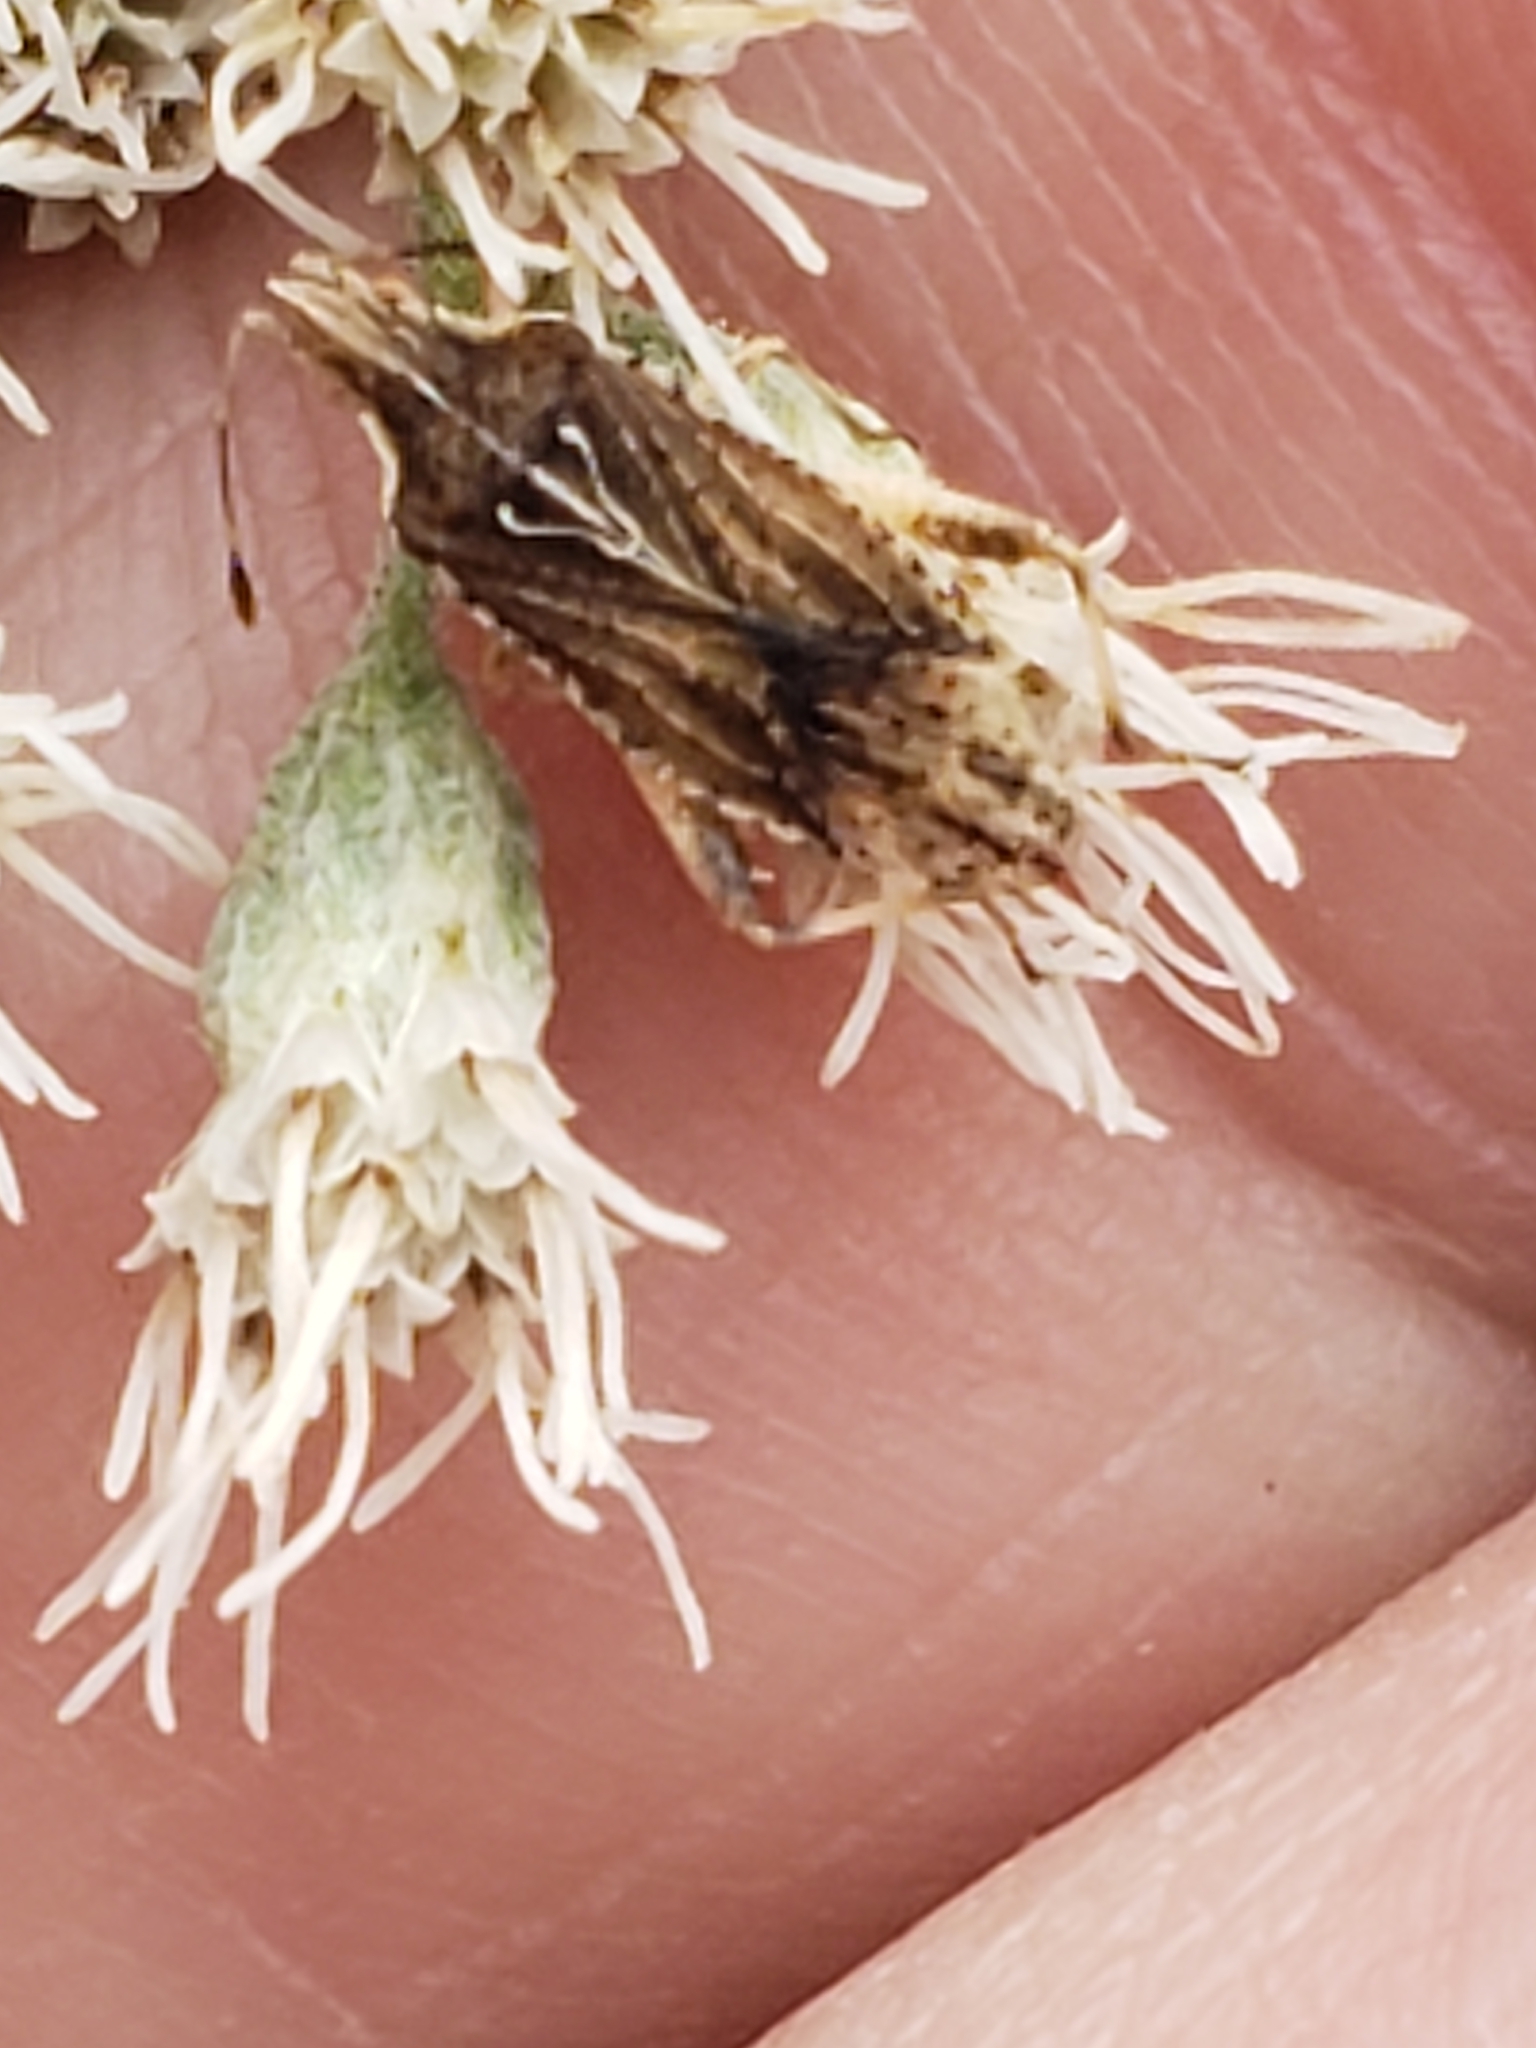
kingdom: Animalia
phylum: Arthropoda
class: Insecta
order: Hemiptera
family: Rhopalidae
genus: Harmostes
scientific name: Harmostes fraterculus
